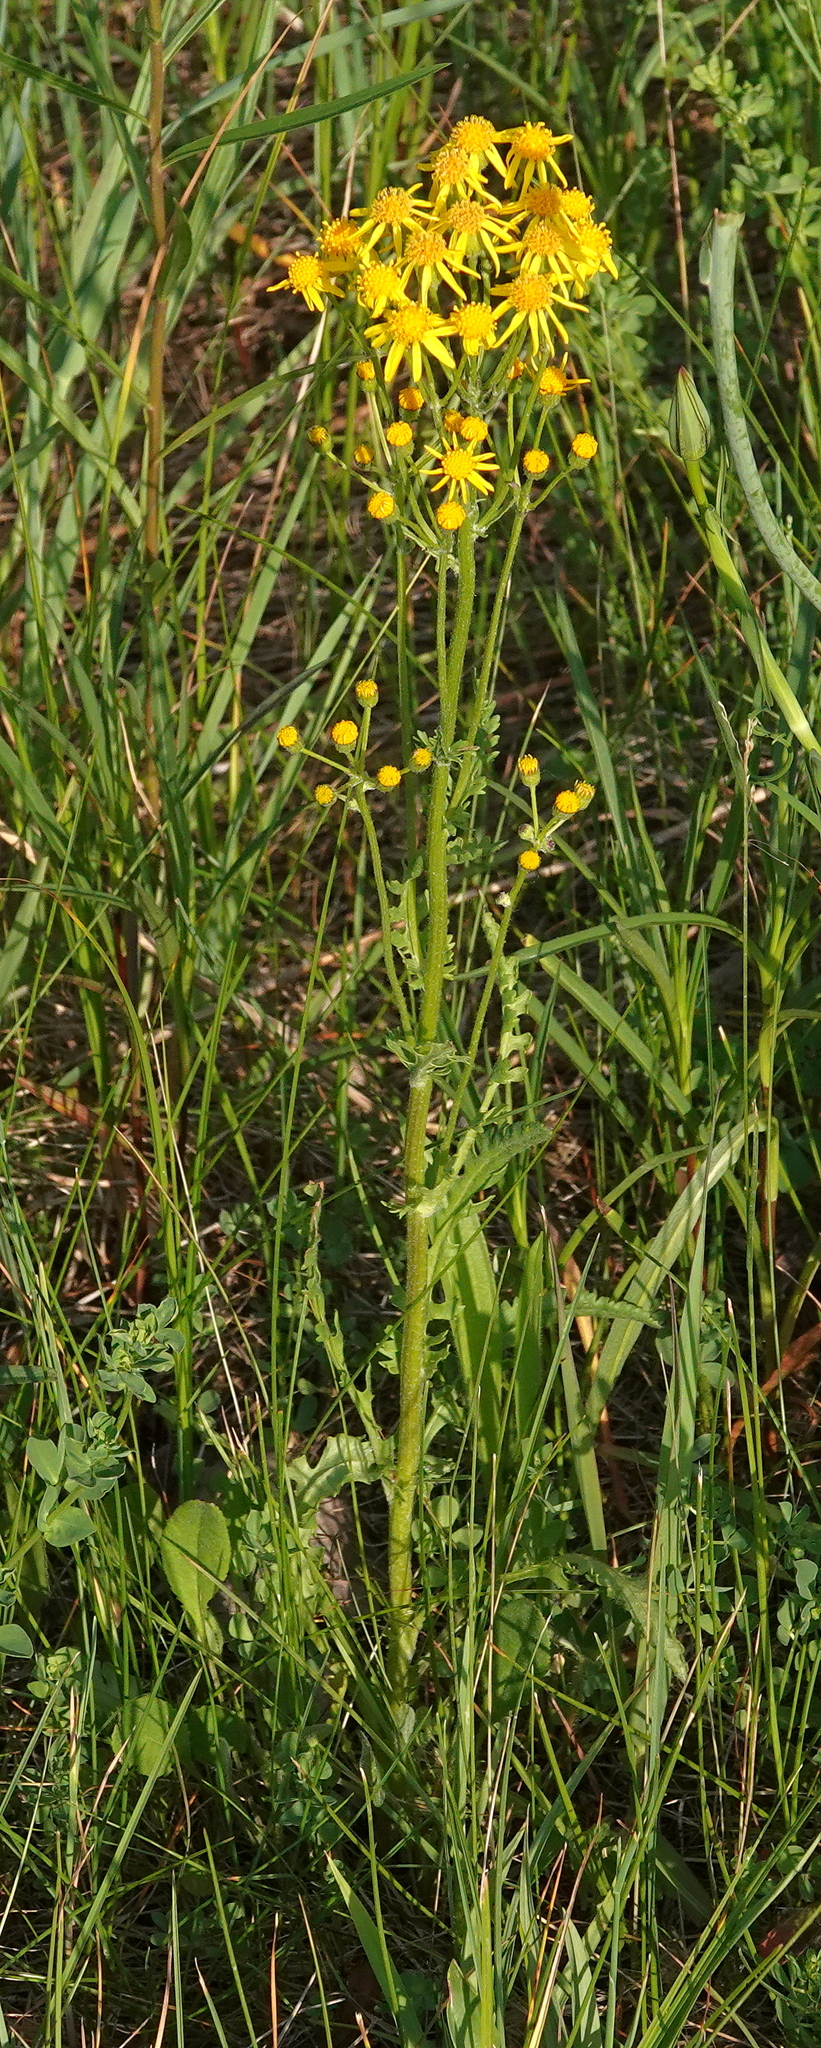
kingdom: Plantae
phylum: Tracheophyta
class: Magnoliopsida
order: Asterales
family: Asteraceae
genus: Packera
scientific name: Packera paupercula
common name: Balsam groundsel
